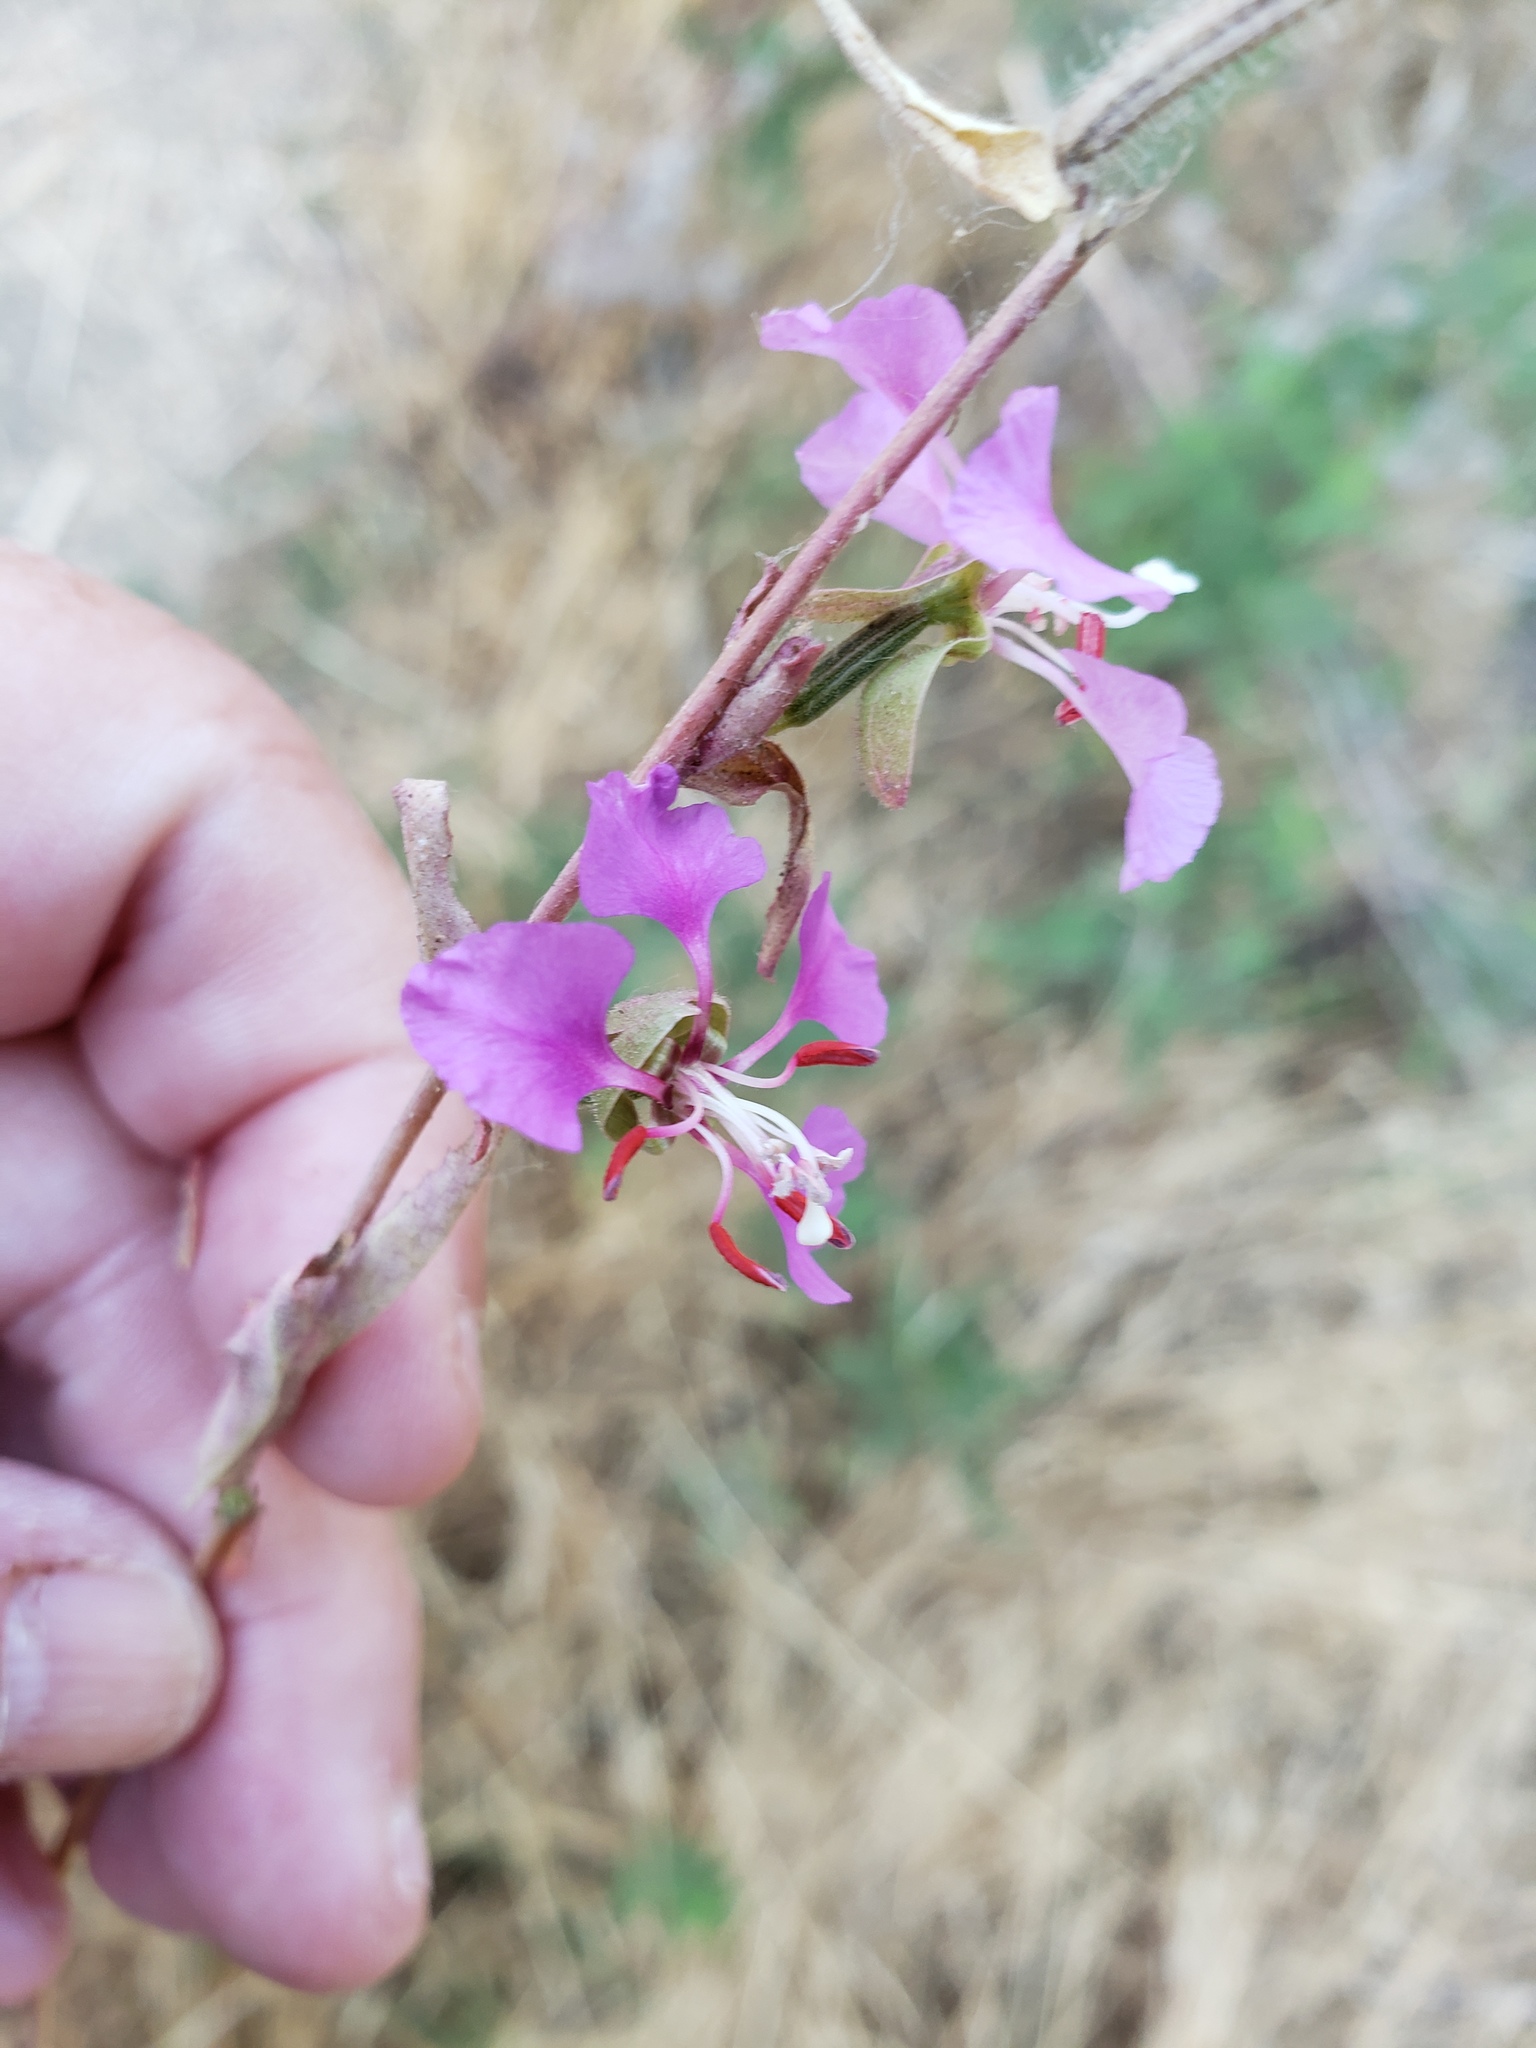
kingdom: Plantae
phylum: Tracheophyta
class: Magnoliopsida
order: Myrtales
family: Onagraceae
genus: Clarkia
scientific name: Clarkia unguiculata
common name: Clarkia
